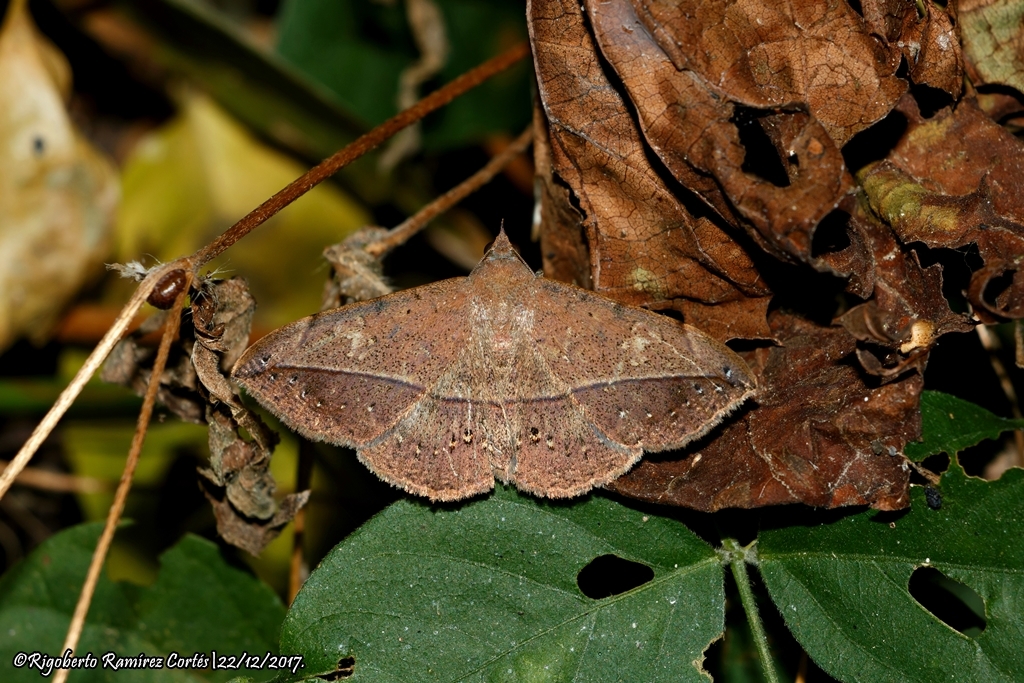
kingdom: Animalia
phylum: Arthropoda
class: Insecta
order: Lepidoptera
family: Erebidae
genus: Anticarsia
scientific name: Anticarsia gemmatalis
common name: Cutworm moth
